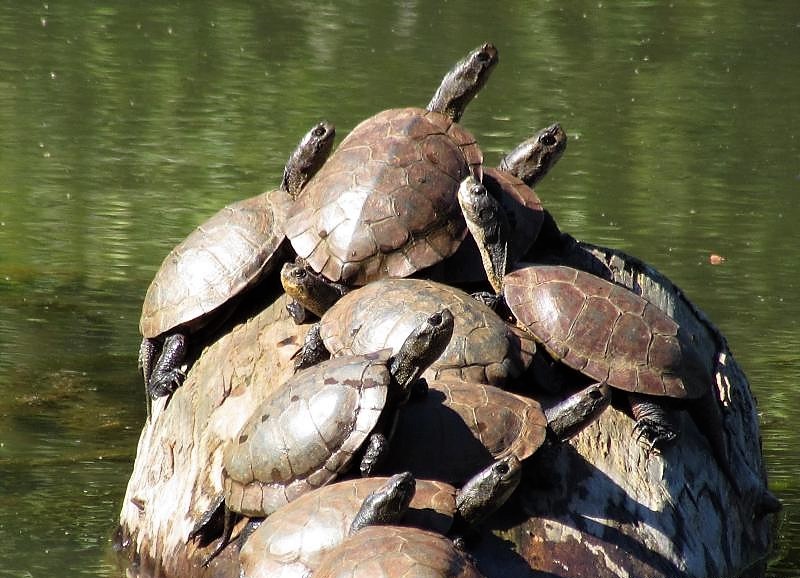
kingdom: Animalia
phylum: Chordata
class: Testudines
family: Emydidae
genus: Actinemys
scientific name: Actinemys marmorata
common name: Western pond turtle
